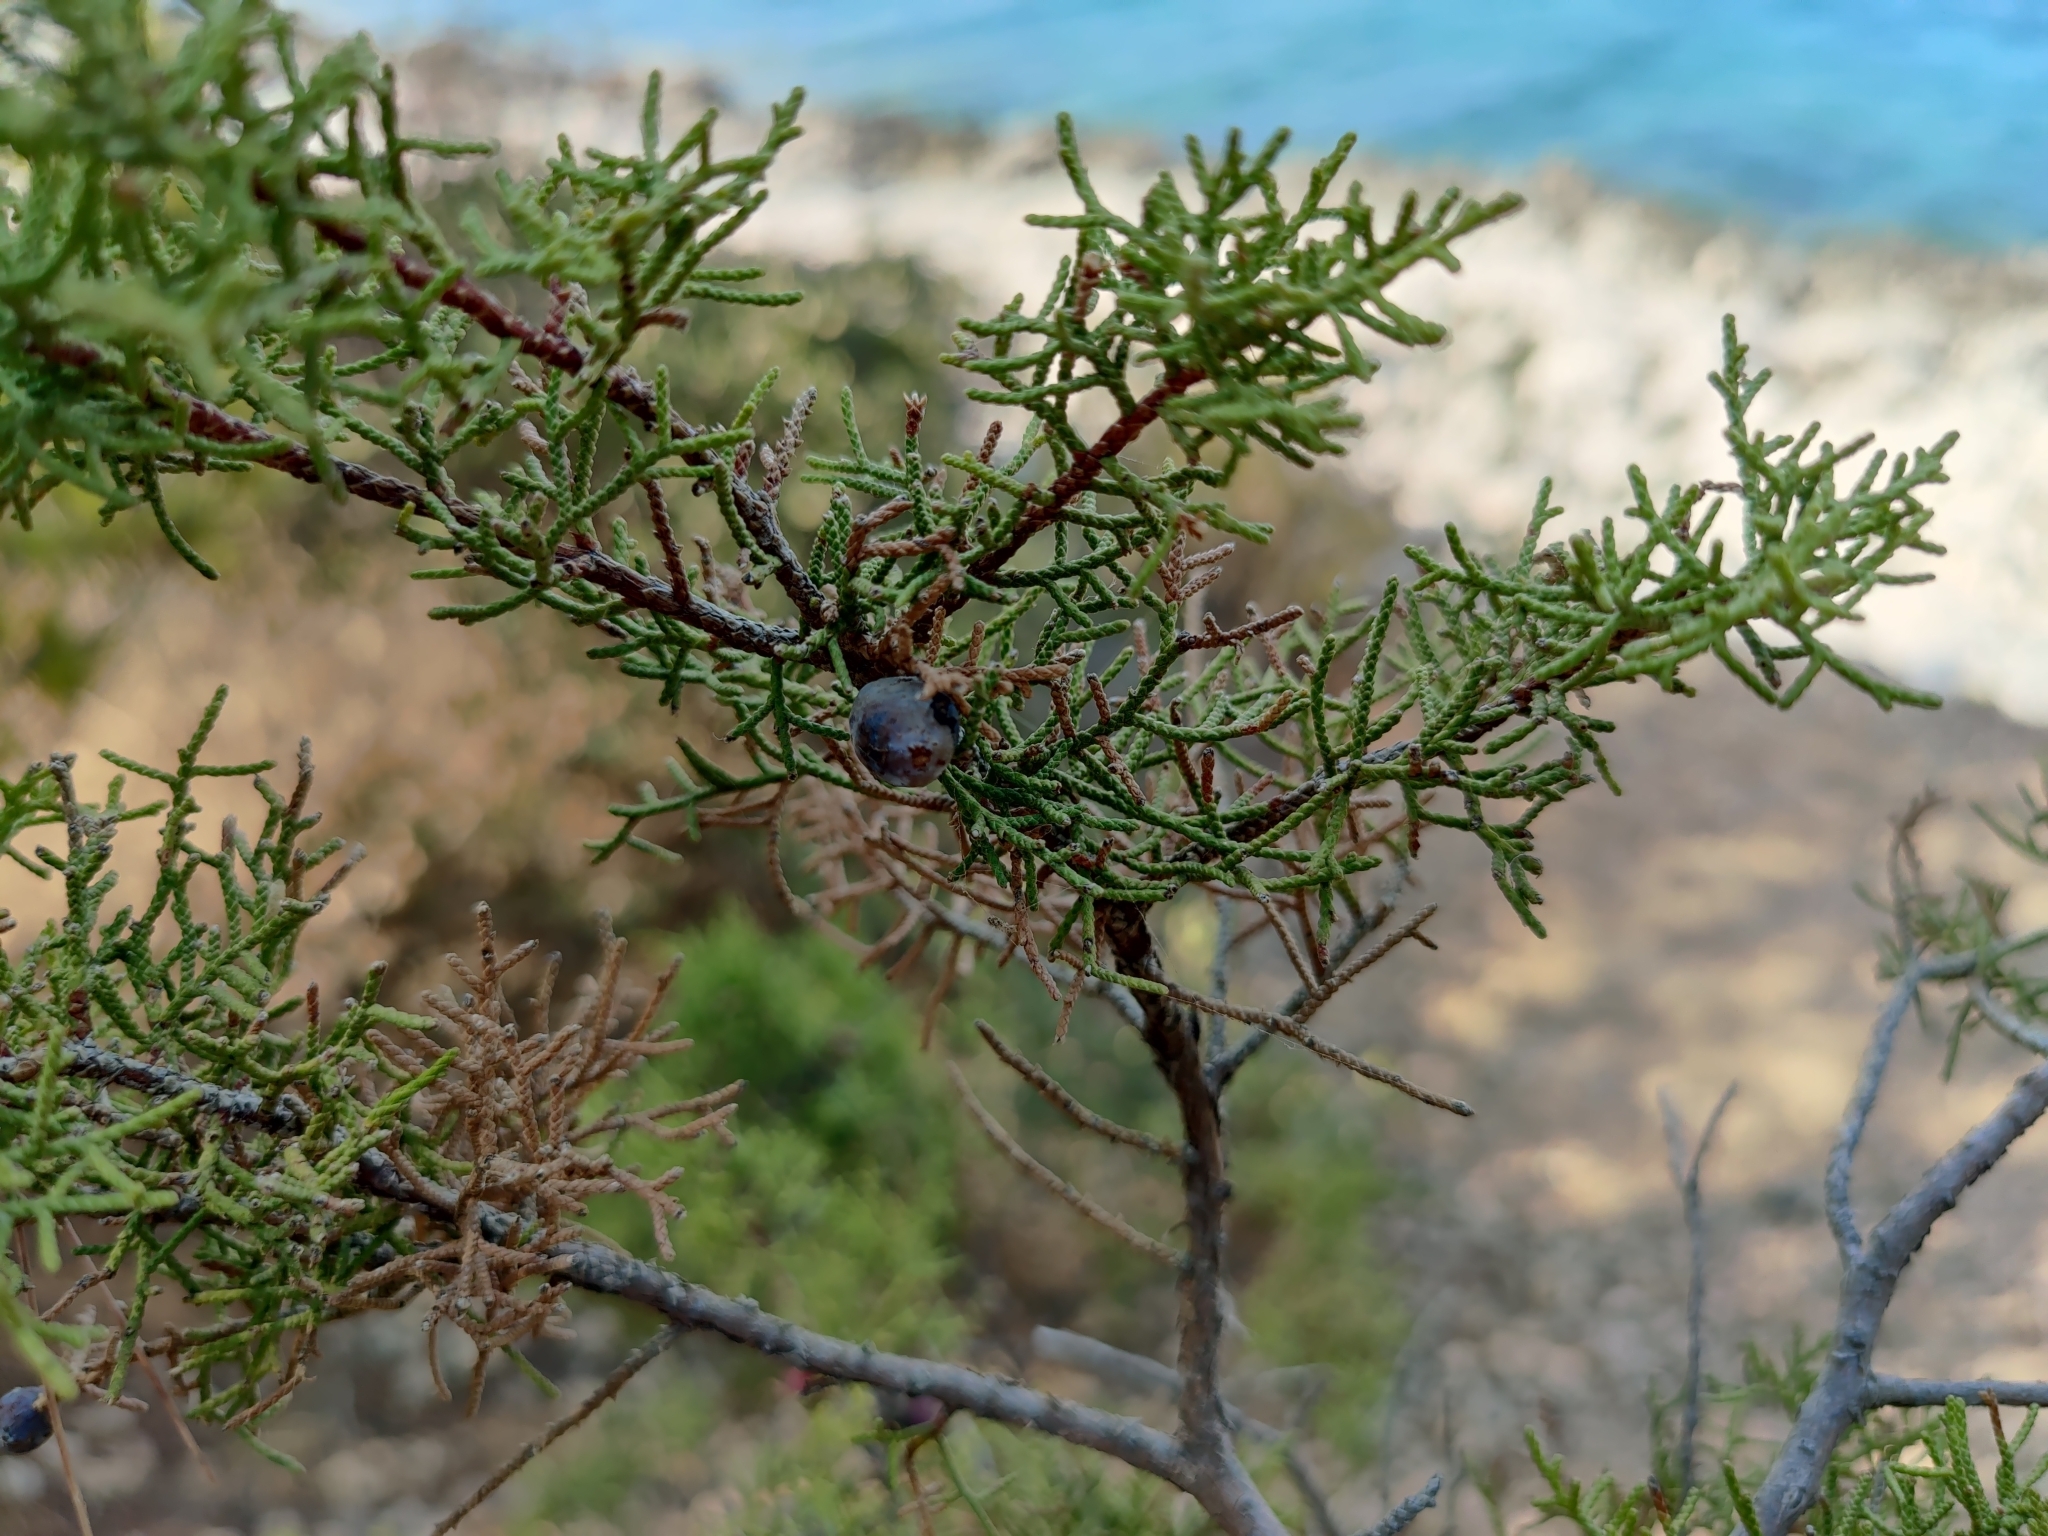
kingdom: Plantae
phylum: Tracheophyta
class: Pinopsida
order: Pinales
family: Cupressaceae
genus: Juniperus
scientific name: Juniperus phoenicea
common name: Phoenician juniper
